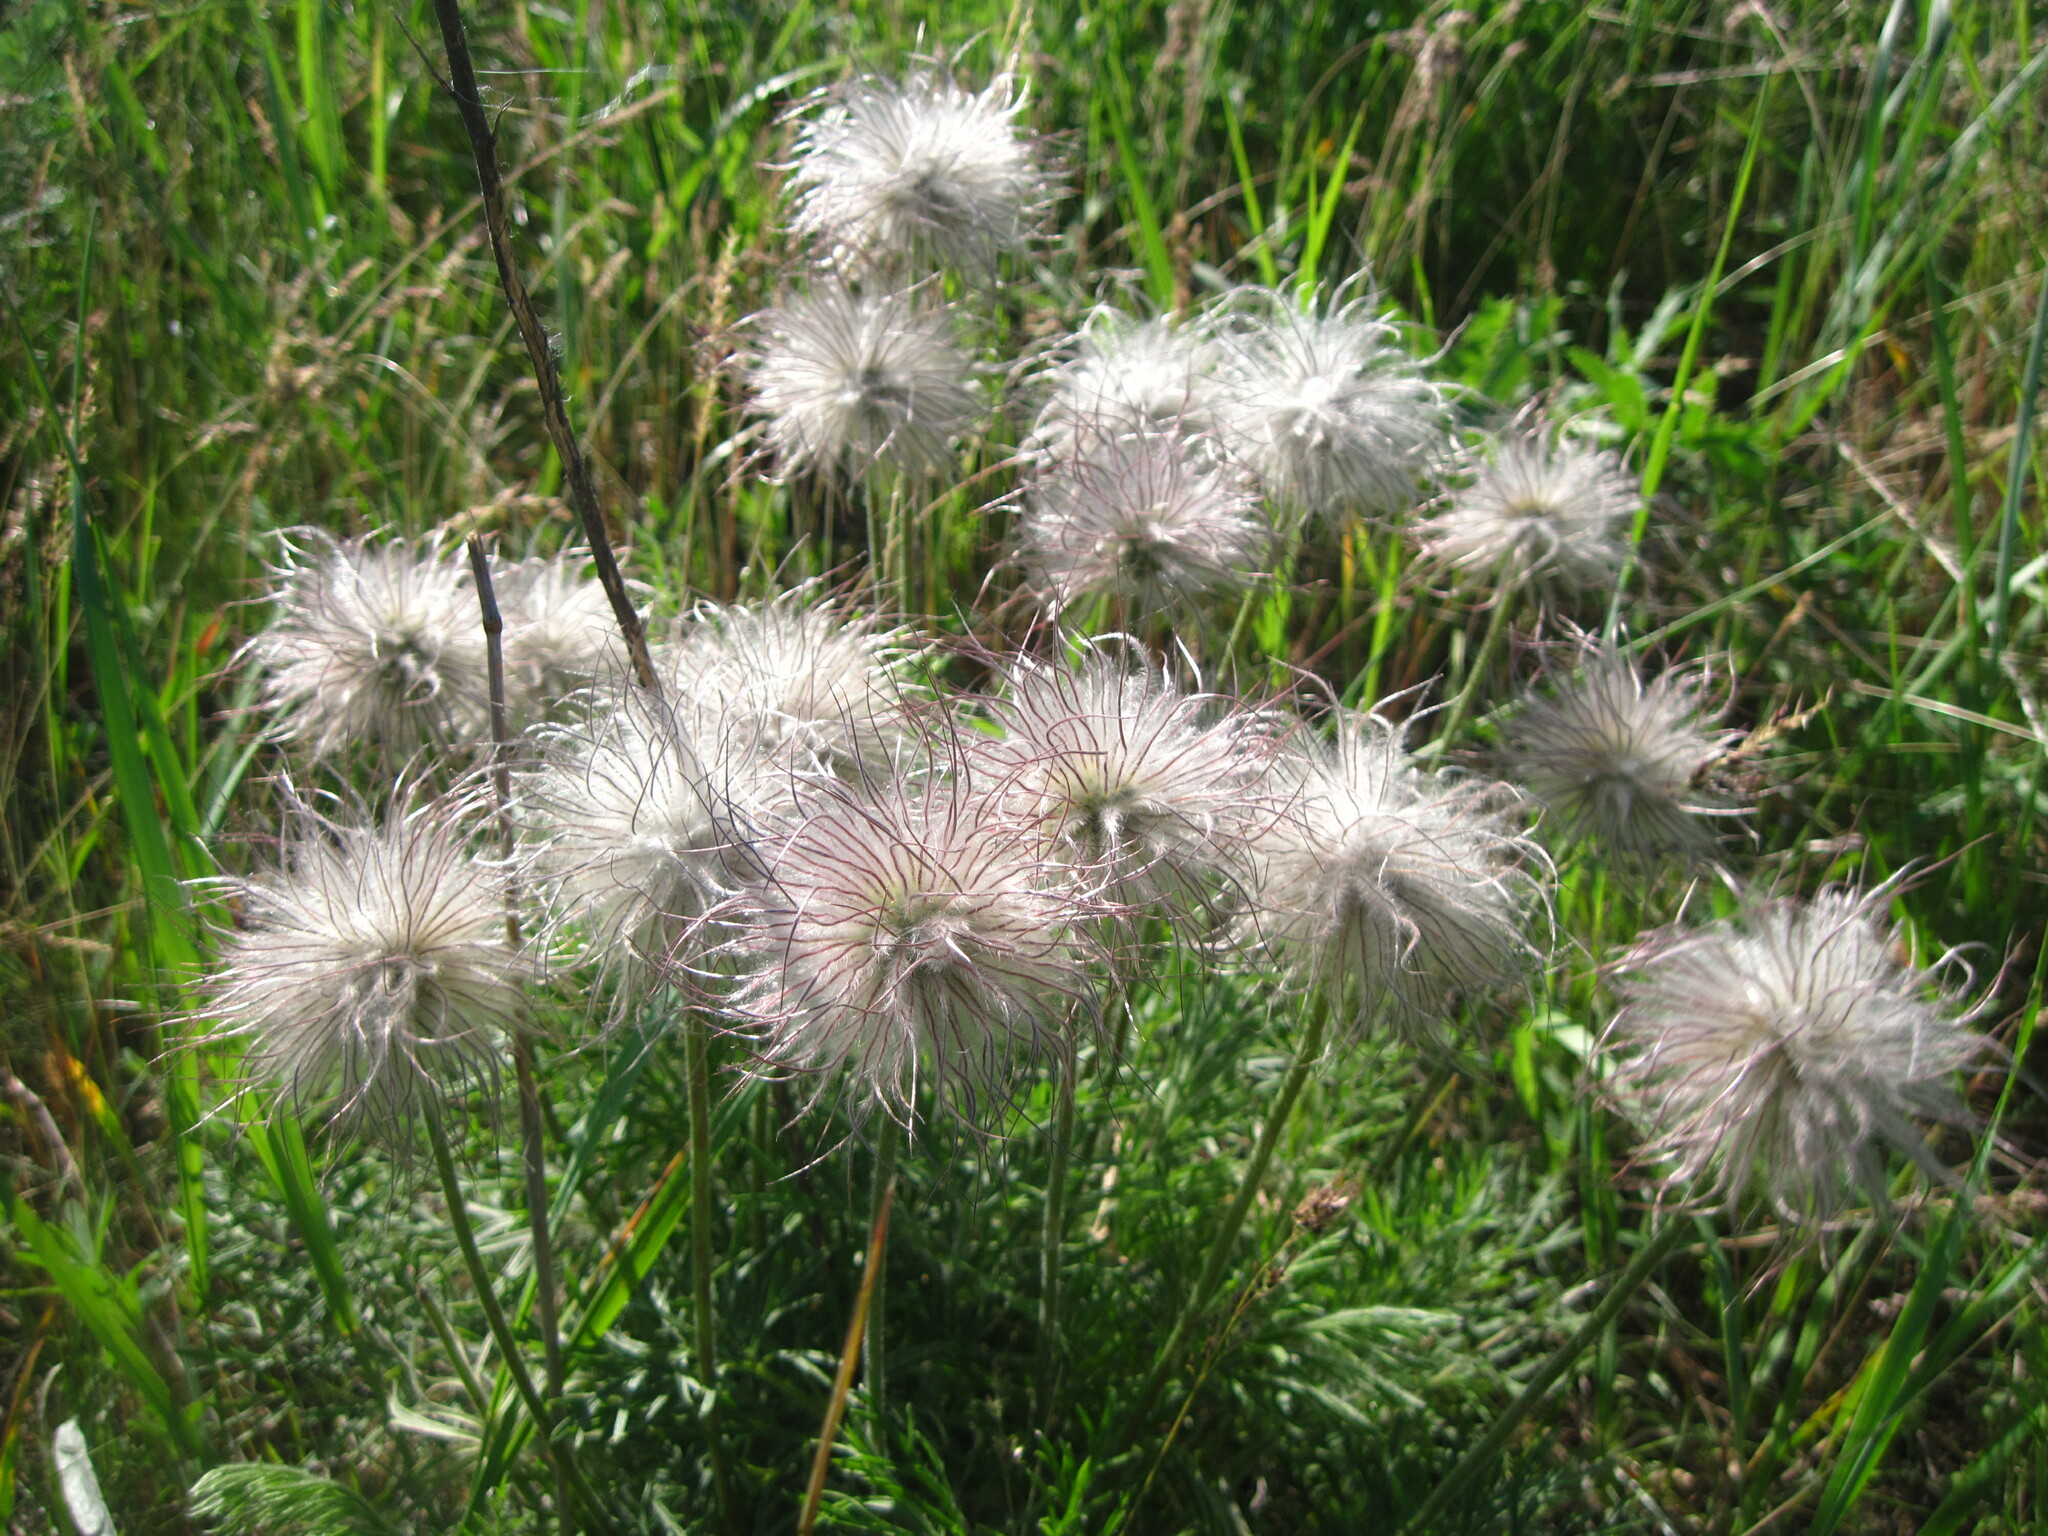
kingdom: Plantae
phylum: Tracheophyta
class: Magnoliopsida
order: Ranunculales
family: Ranunculaceae
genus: Pulsatilla
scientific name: Pulsatilla pratensis
